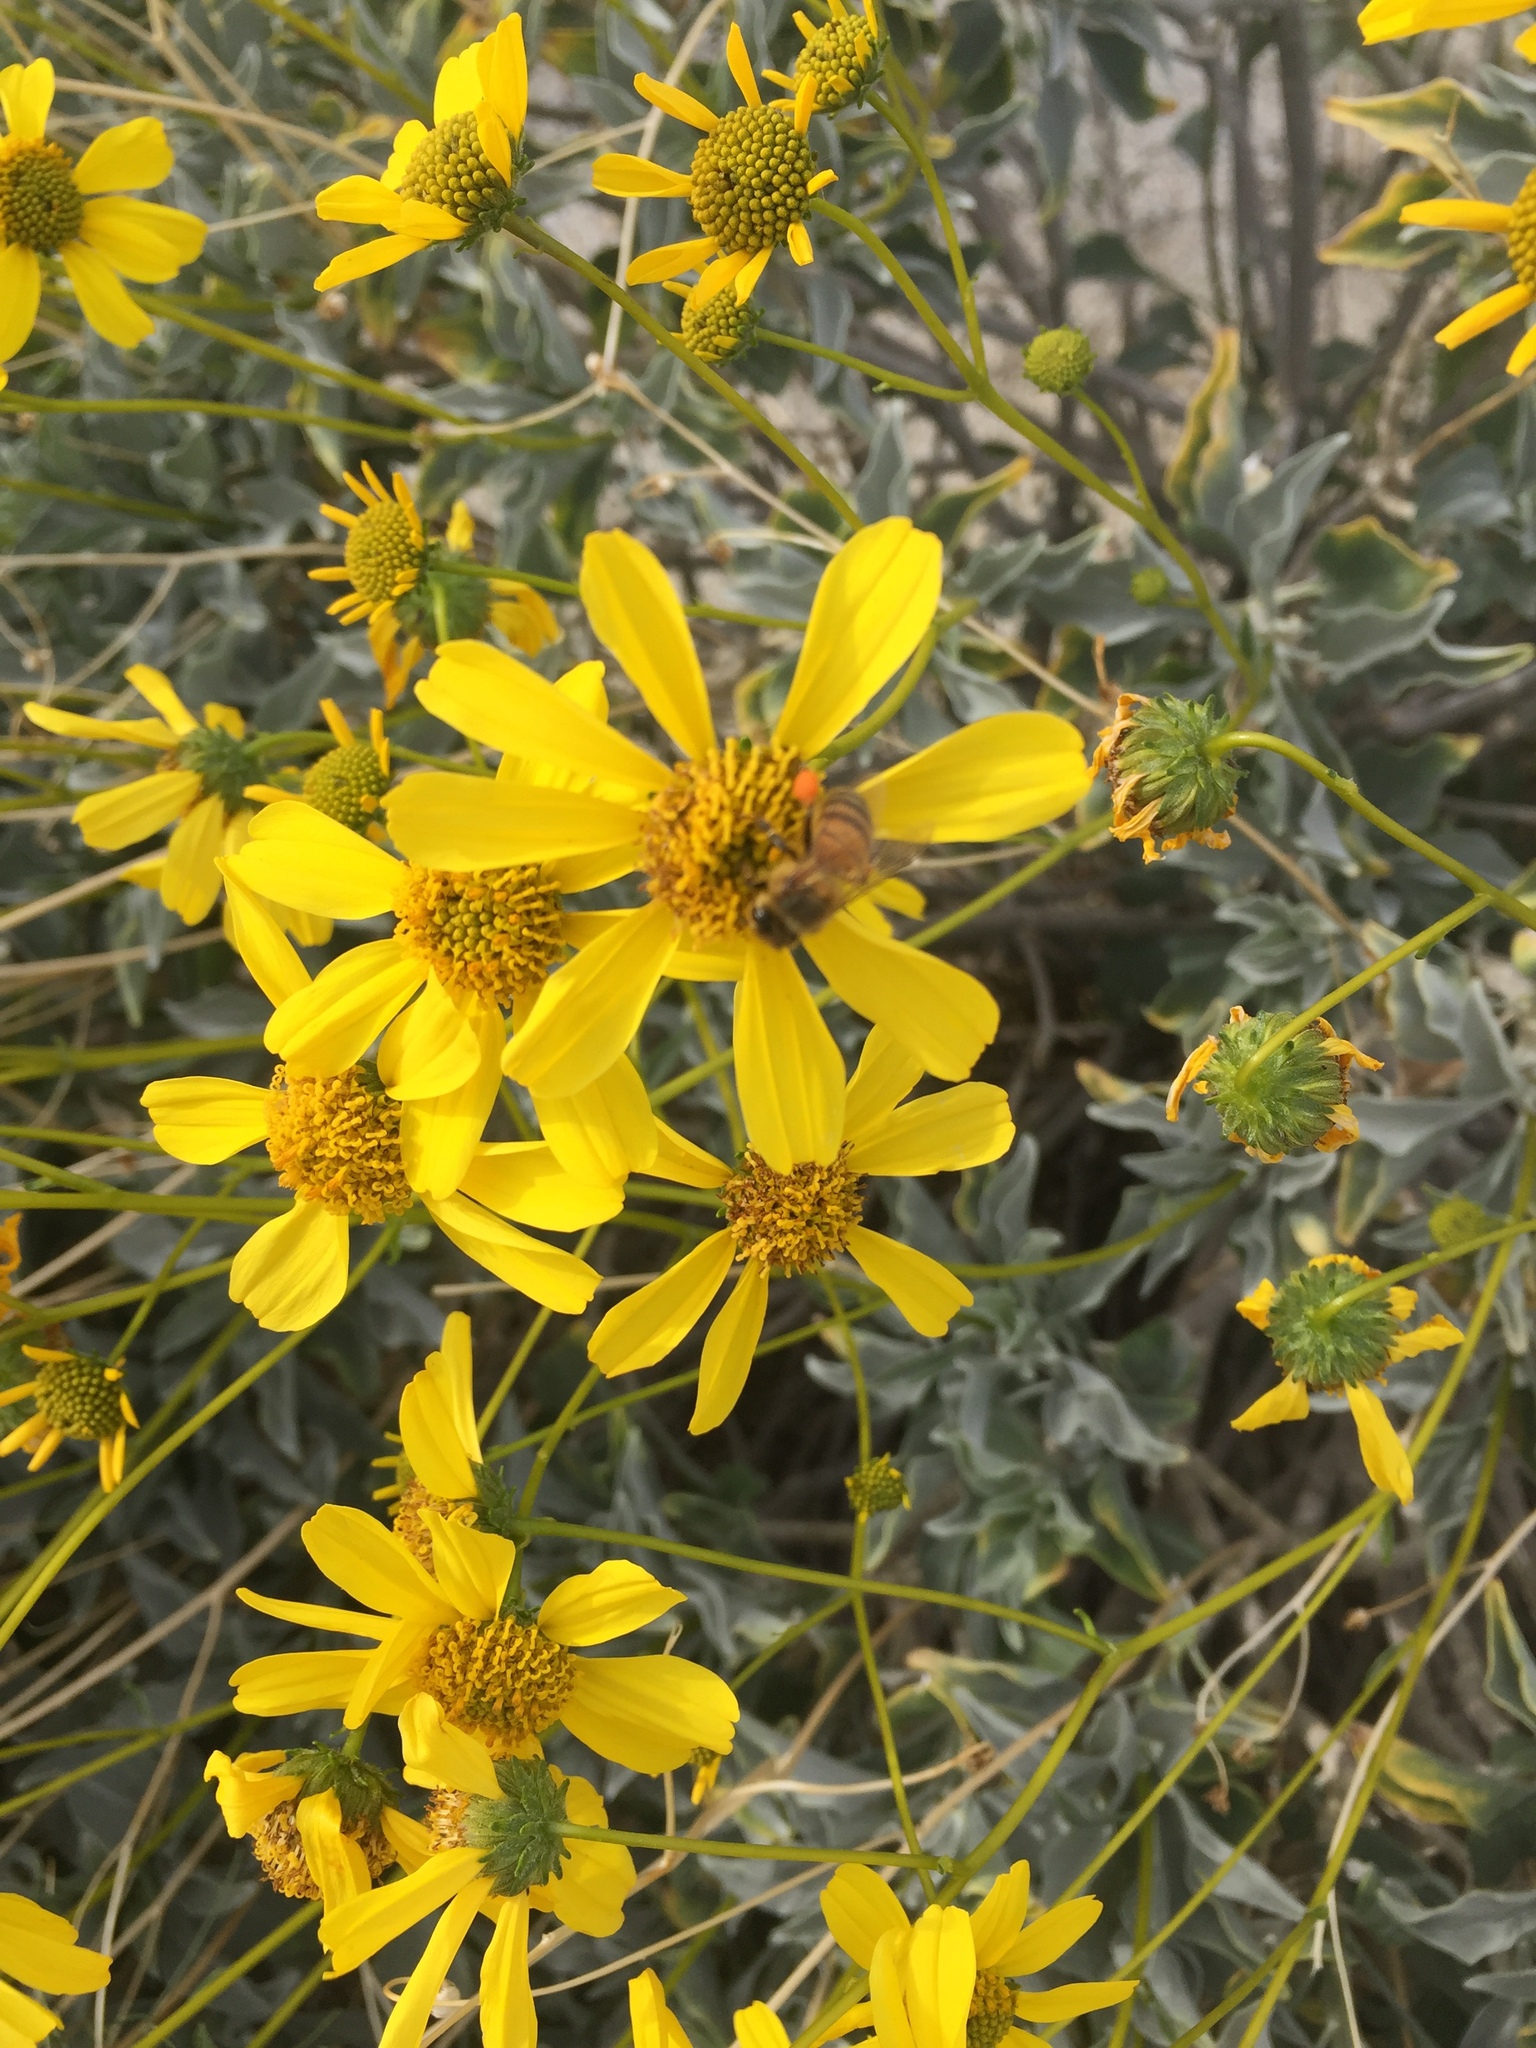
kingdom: Plantae
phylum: Tracheophyta
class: Magnoliopsida
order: Asterales
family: Asteraceae
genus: Encelia
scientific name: Encelia farinosa
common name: Brittlebush
